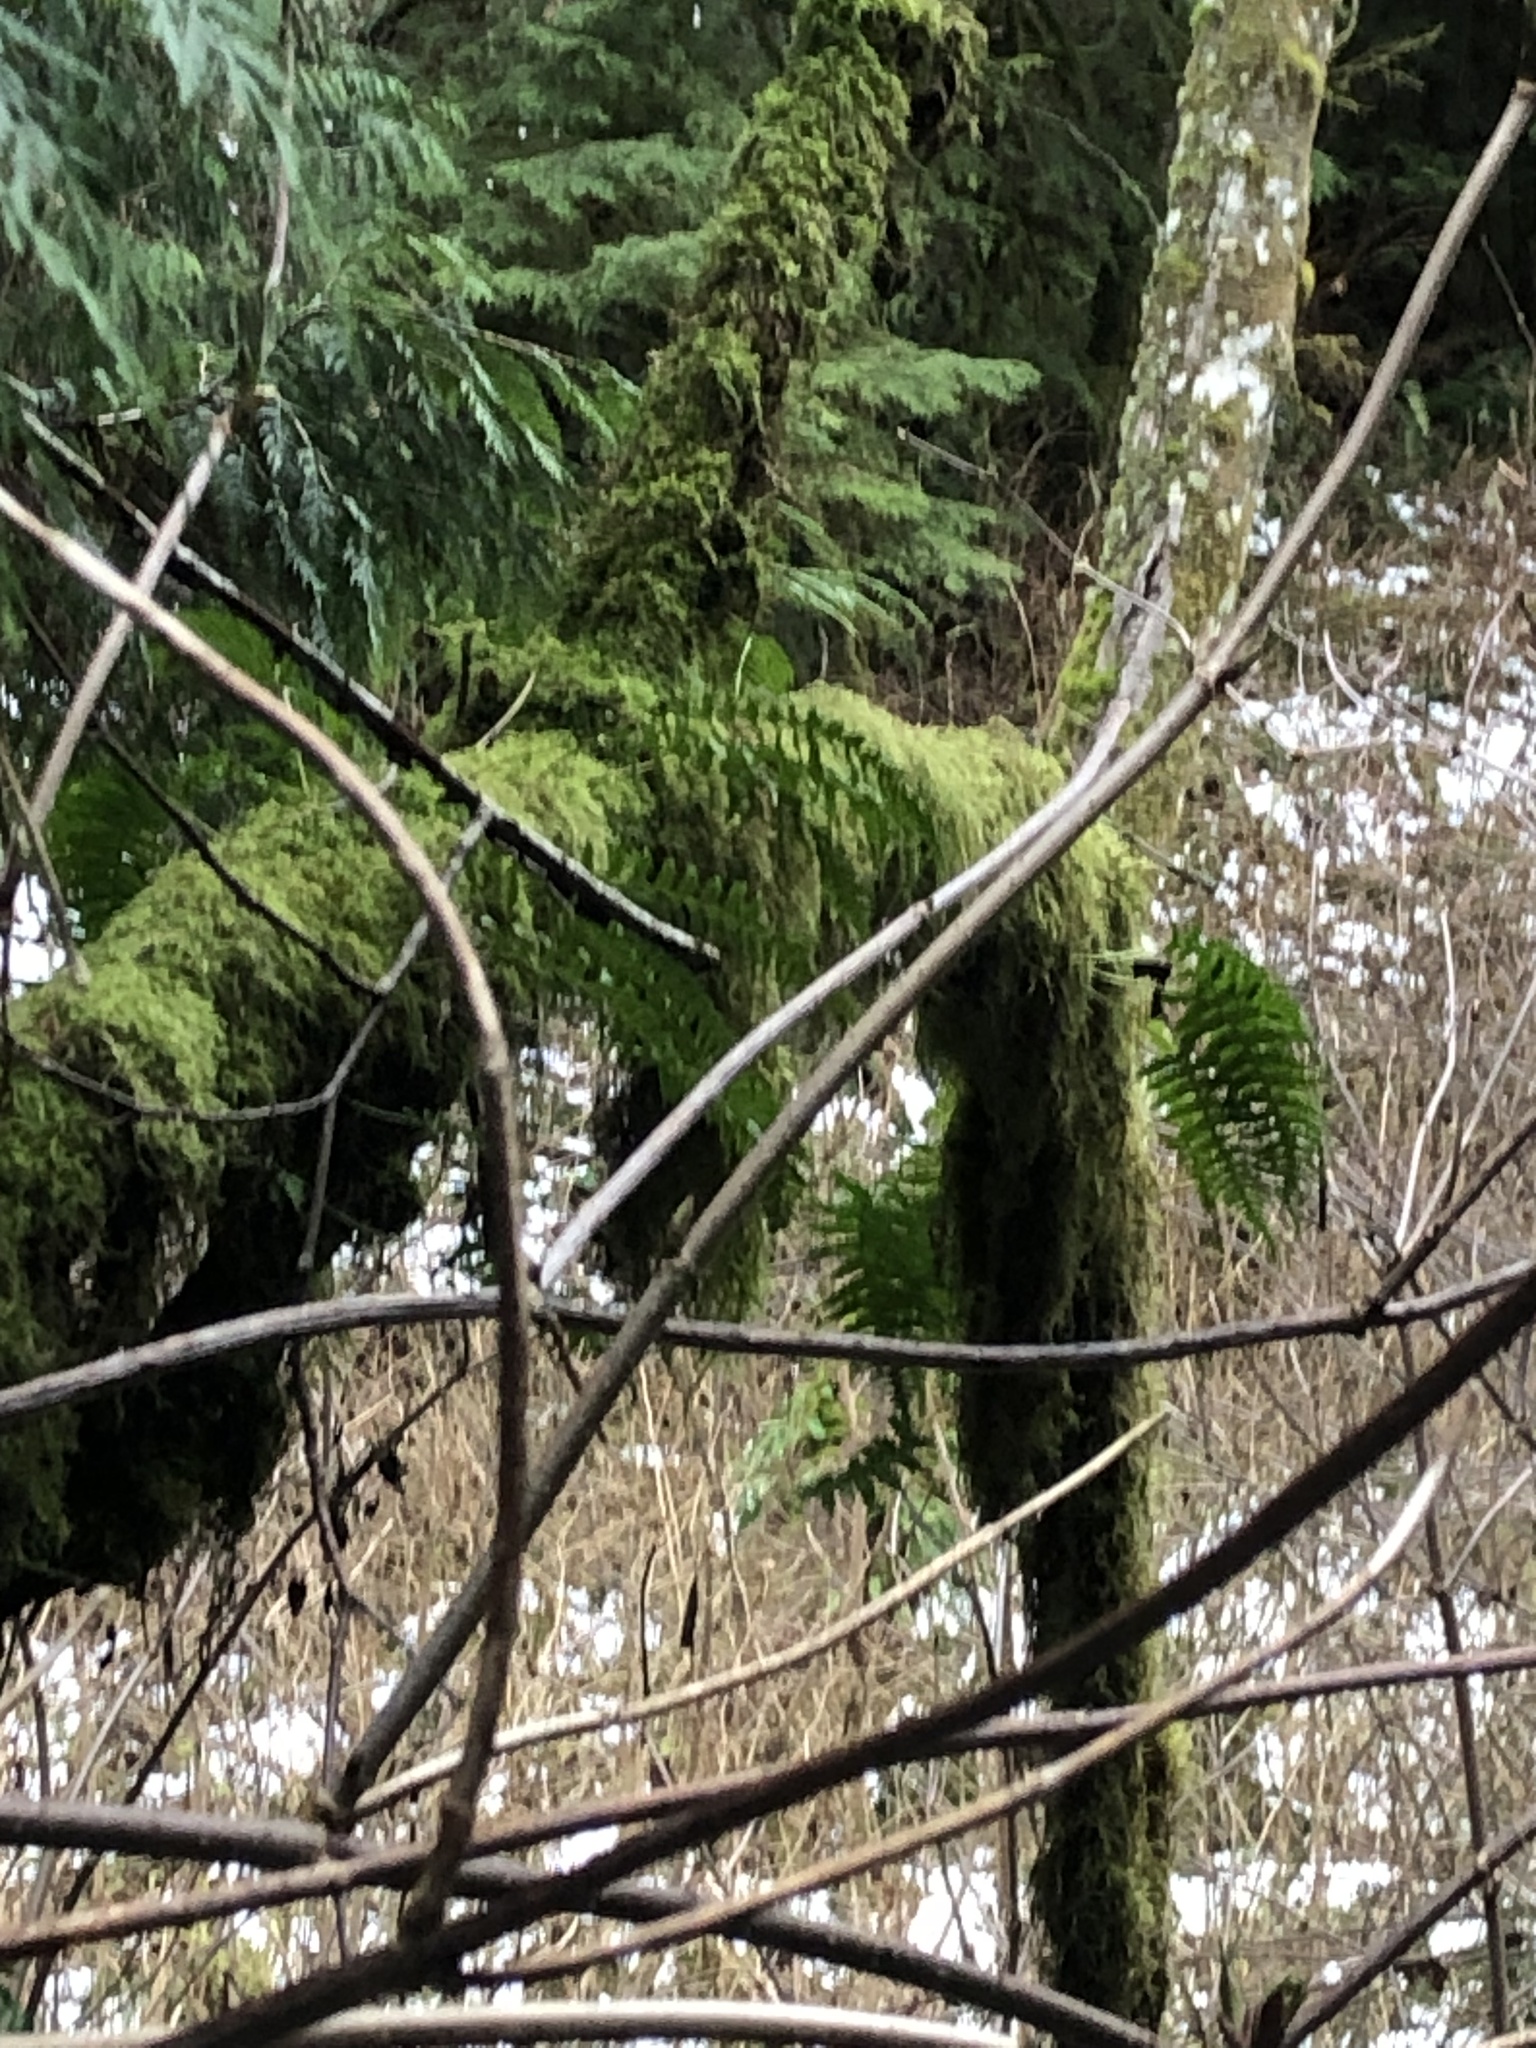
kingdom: Plantae
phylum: Tracheophyta
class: Polypodiopsida
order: Polypodiales
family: Polypodiaceae
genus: Polypodium
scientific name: Polypodium glycyrrhiza
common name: Licorice fern
